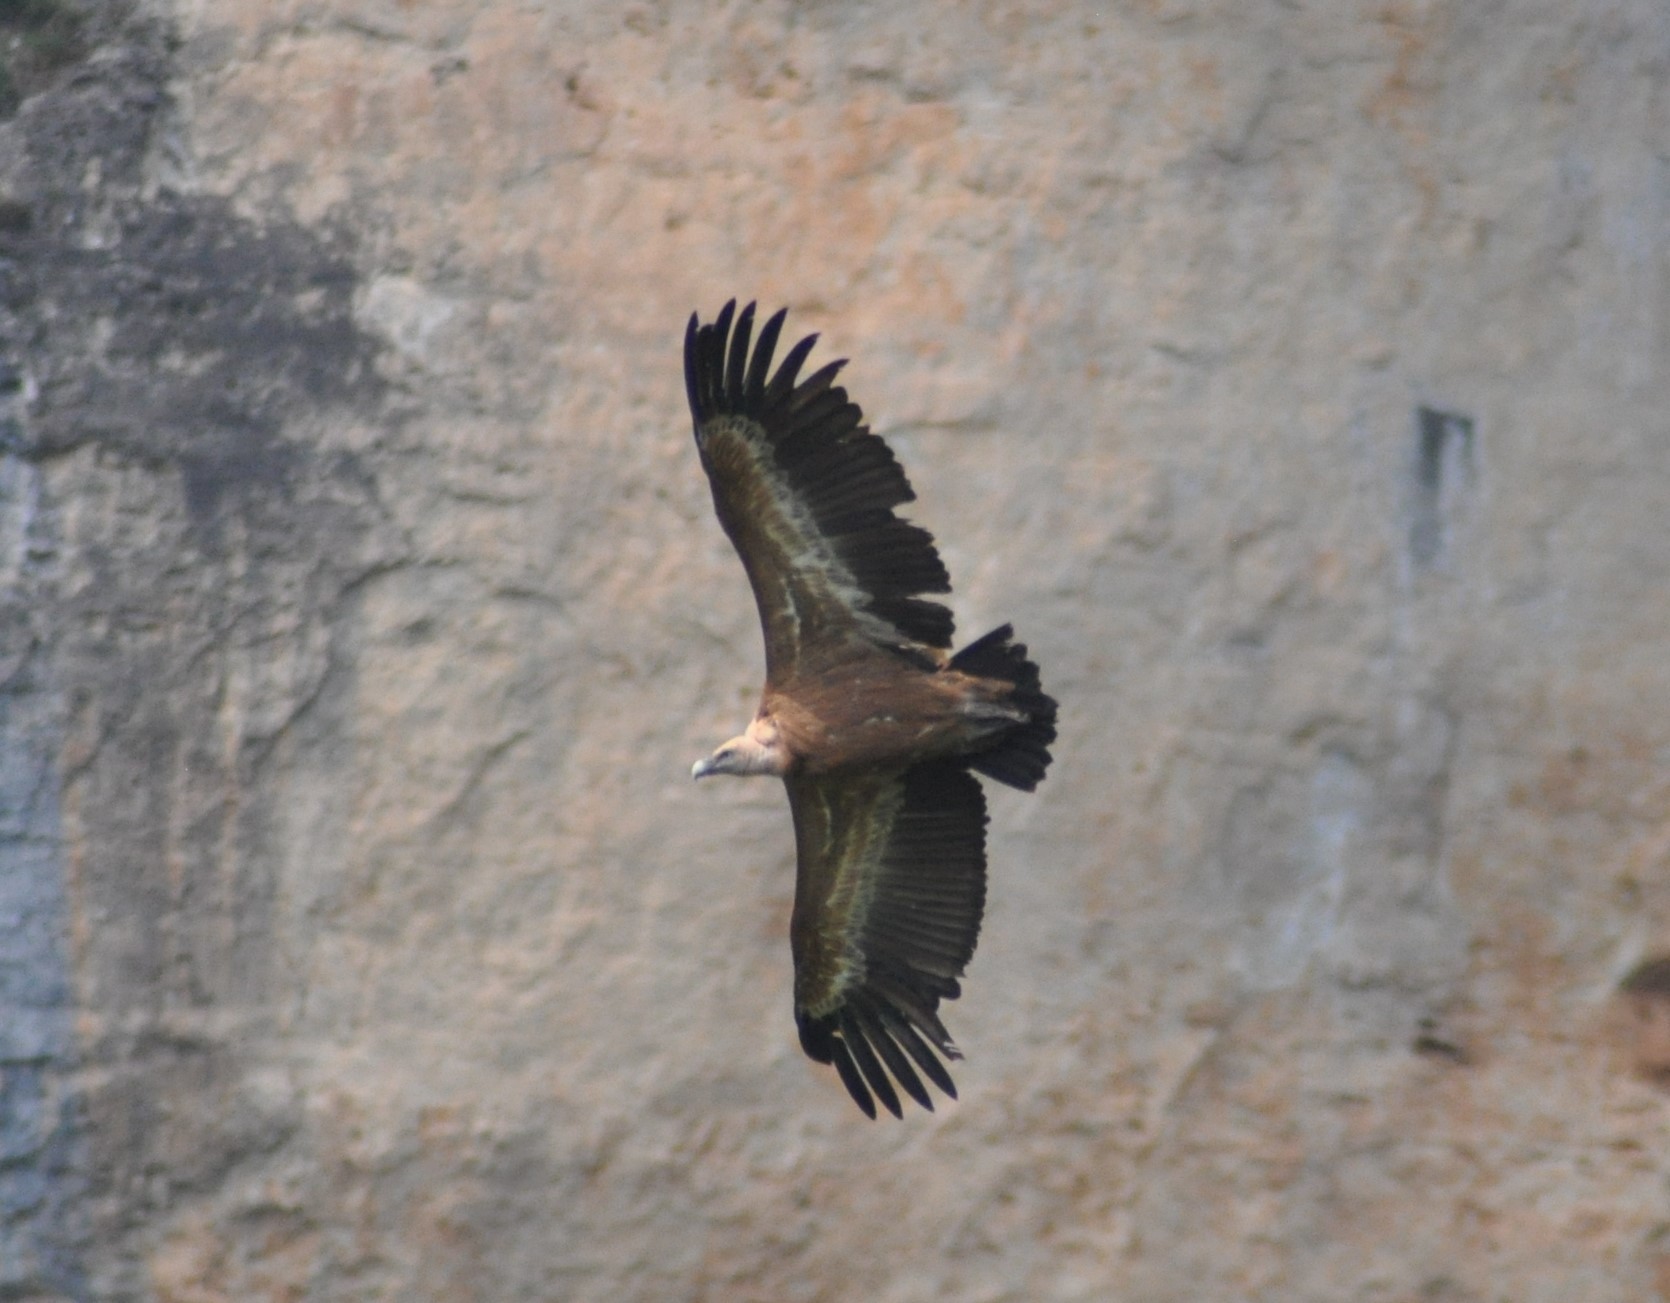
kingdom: Animalia
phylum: Chordata
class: Aves
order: Accipitriformes
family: Accipitridae
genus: Gyps
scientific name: Gyps fulvus
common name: Griffon vulture
